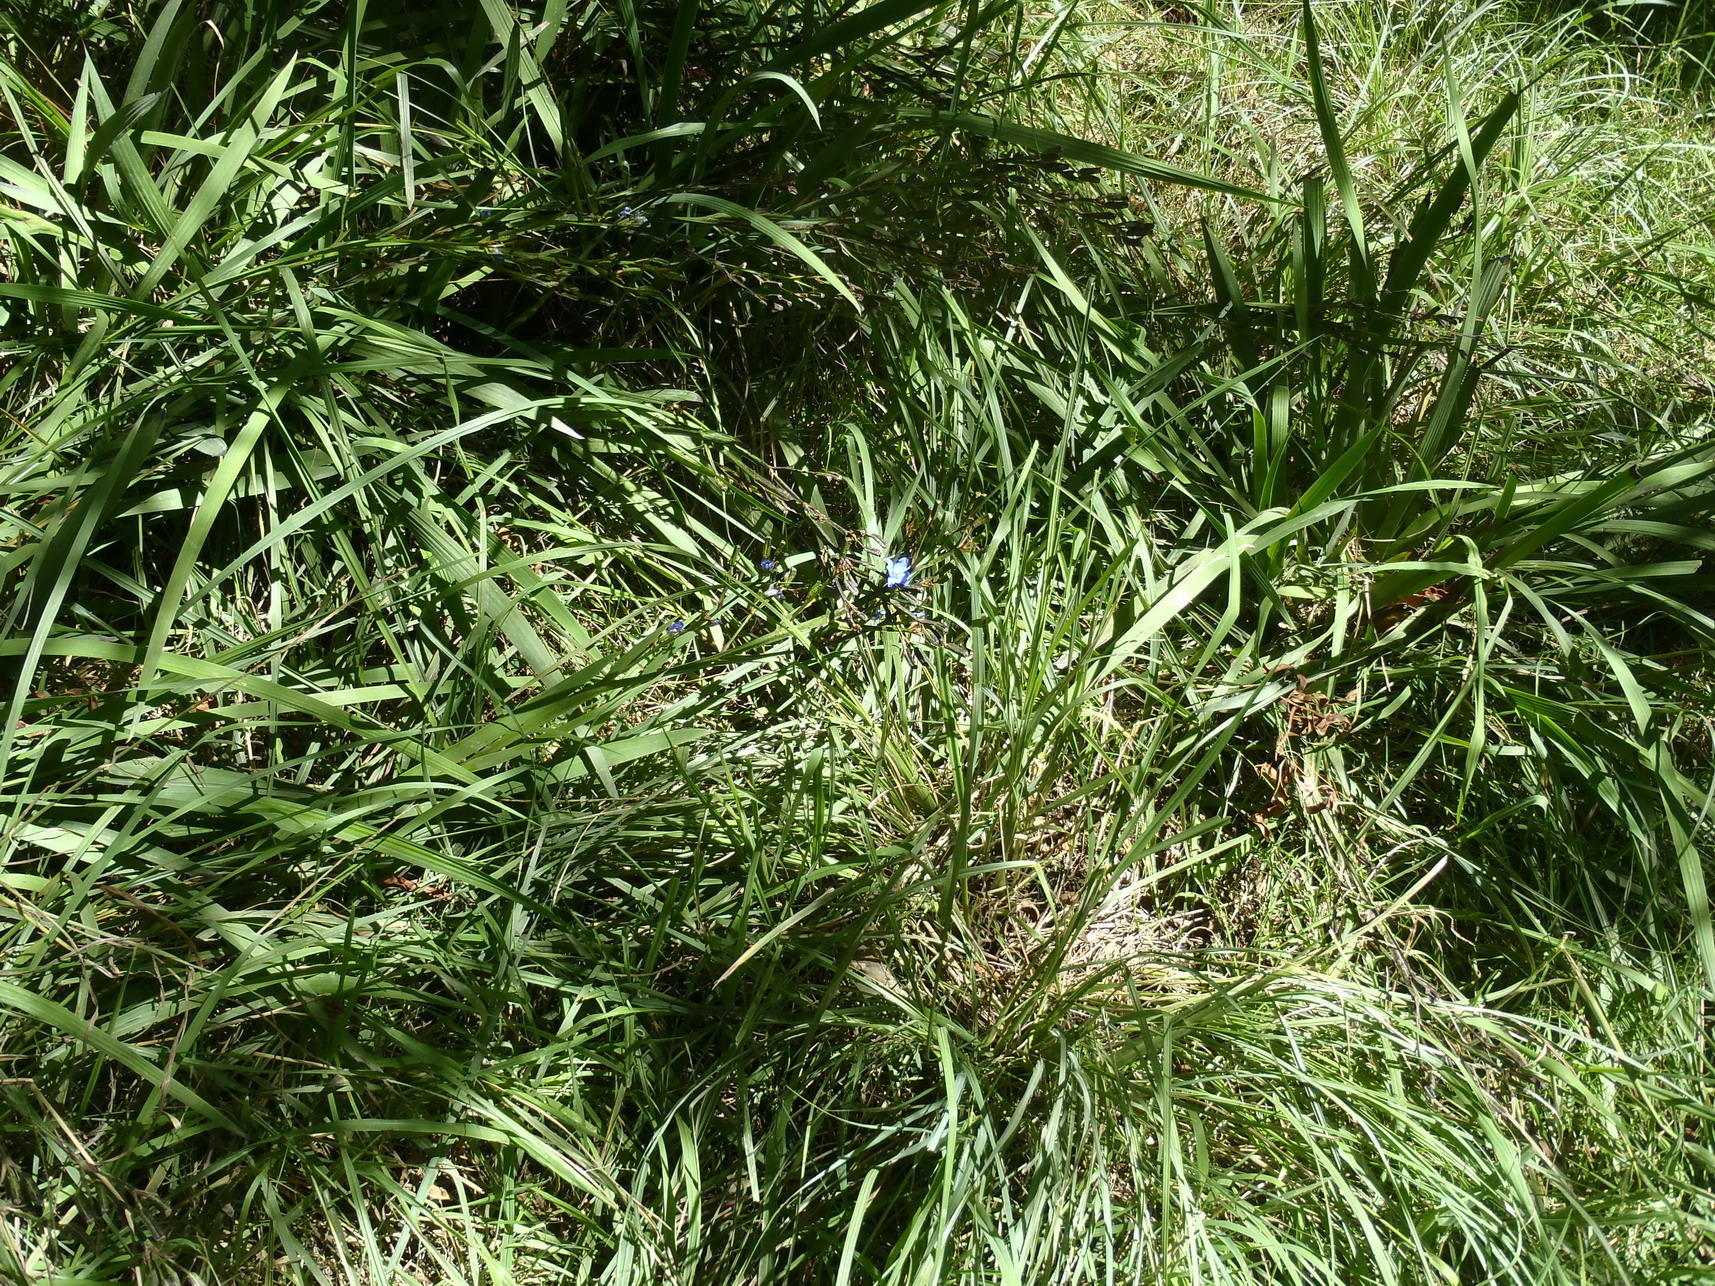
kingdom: Plantae
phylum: Tracheophyta
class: Liliopsida
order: Asparagales
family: Iridaceae
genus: Aristea
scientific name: Aristea ecklonii
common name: Blue corn-lily
